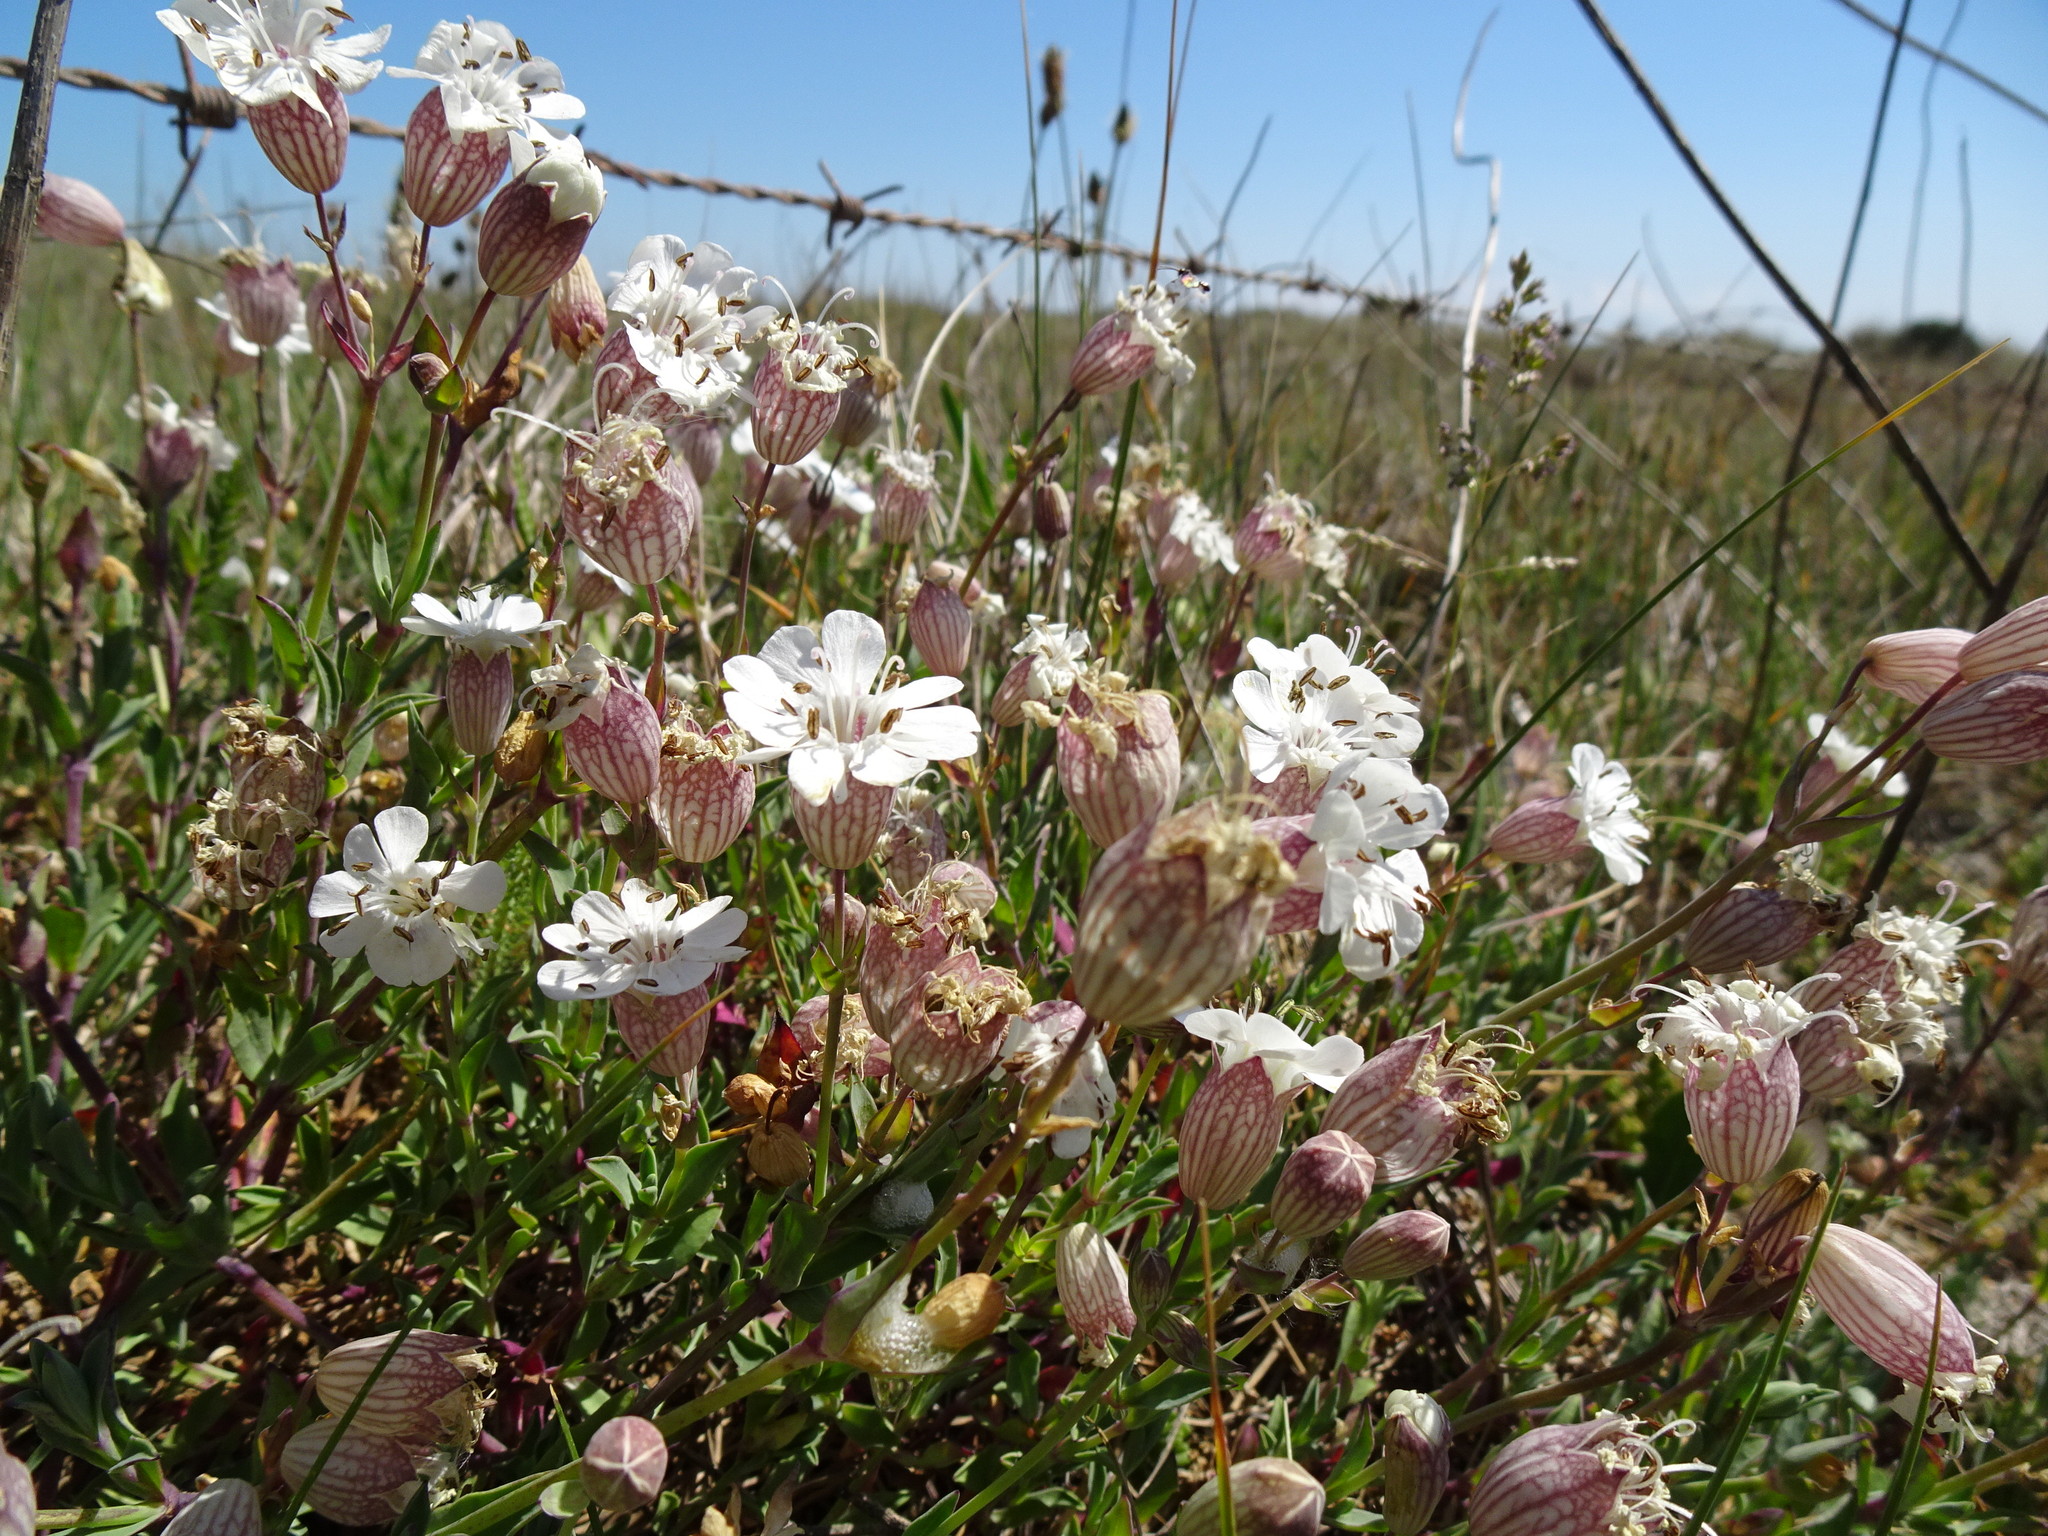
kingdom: Plantae
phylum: Tracheophyta
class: Magnoliopsida
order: Caryophyllales
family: Caryophyllaceae
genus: Silene
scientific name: Silene uniflora
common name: Sea campion
